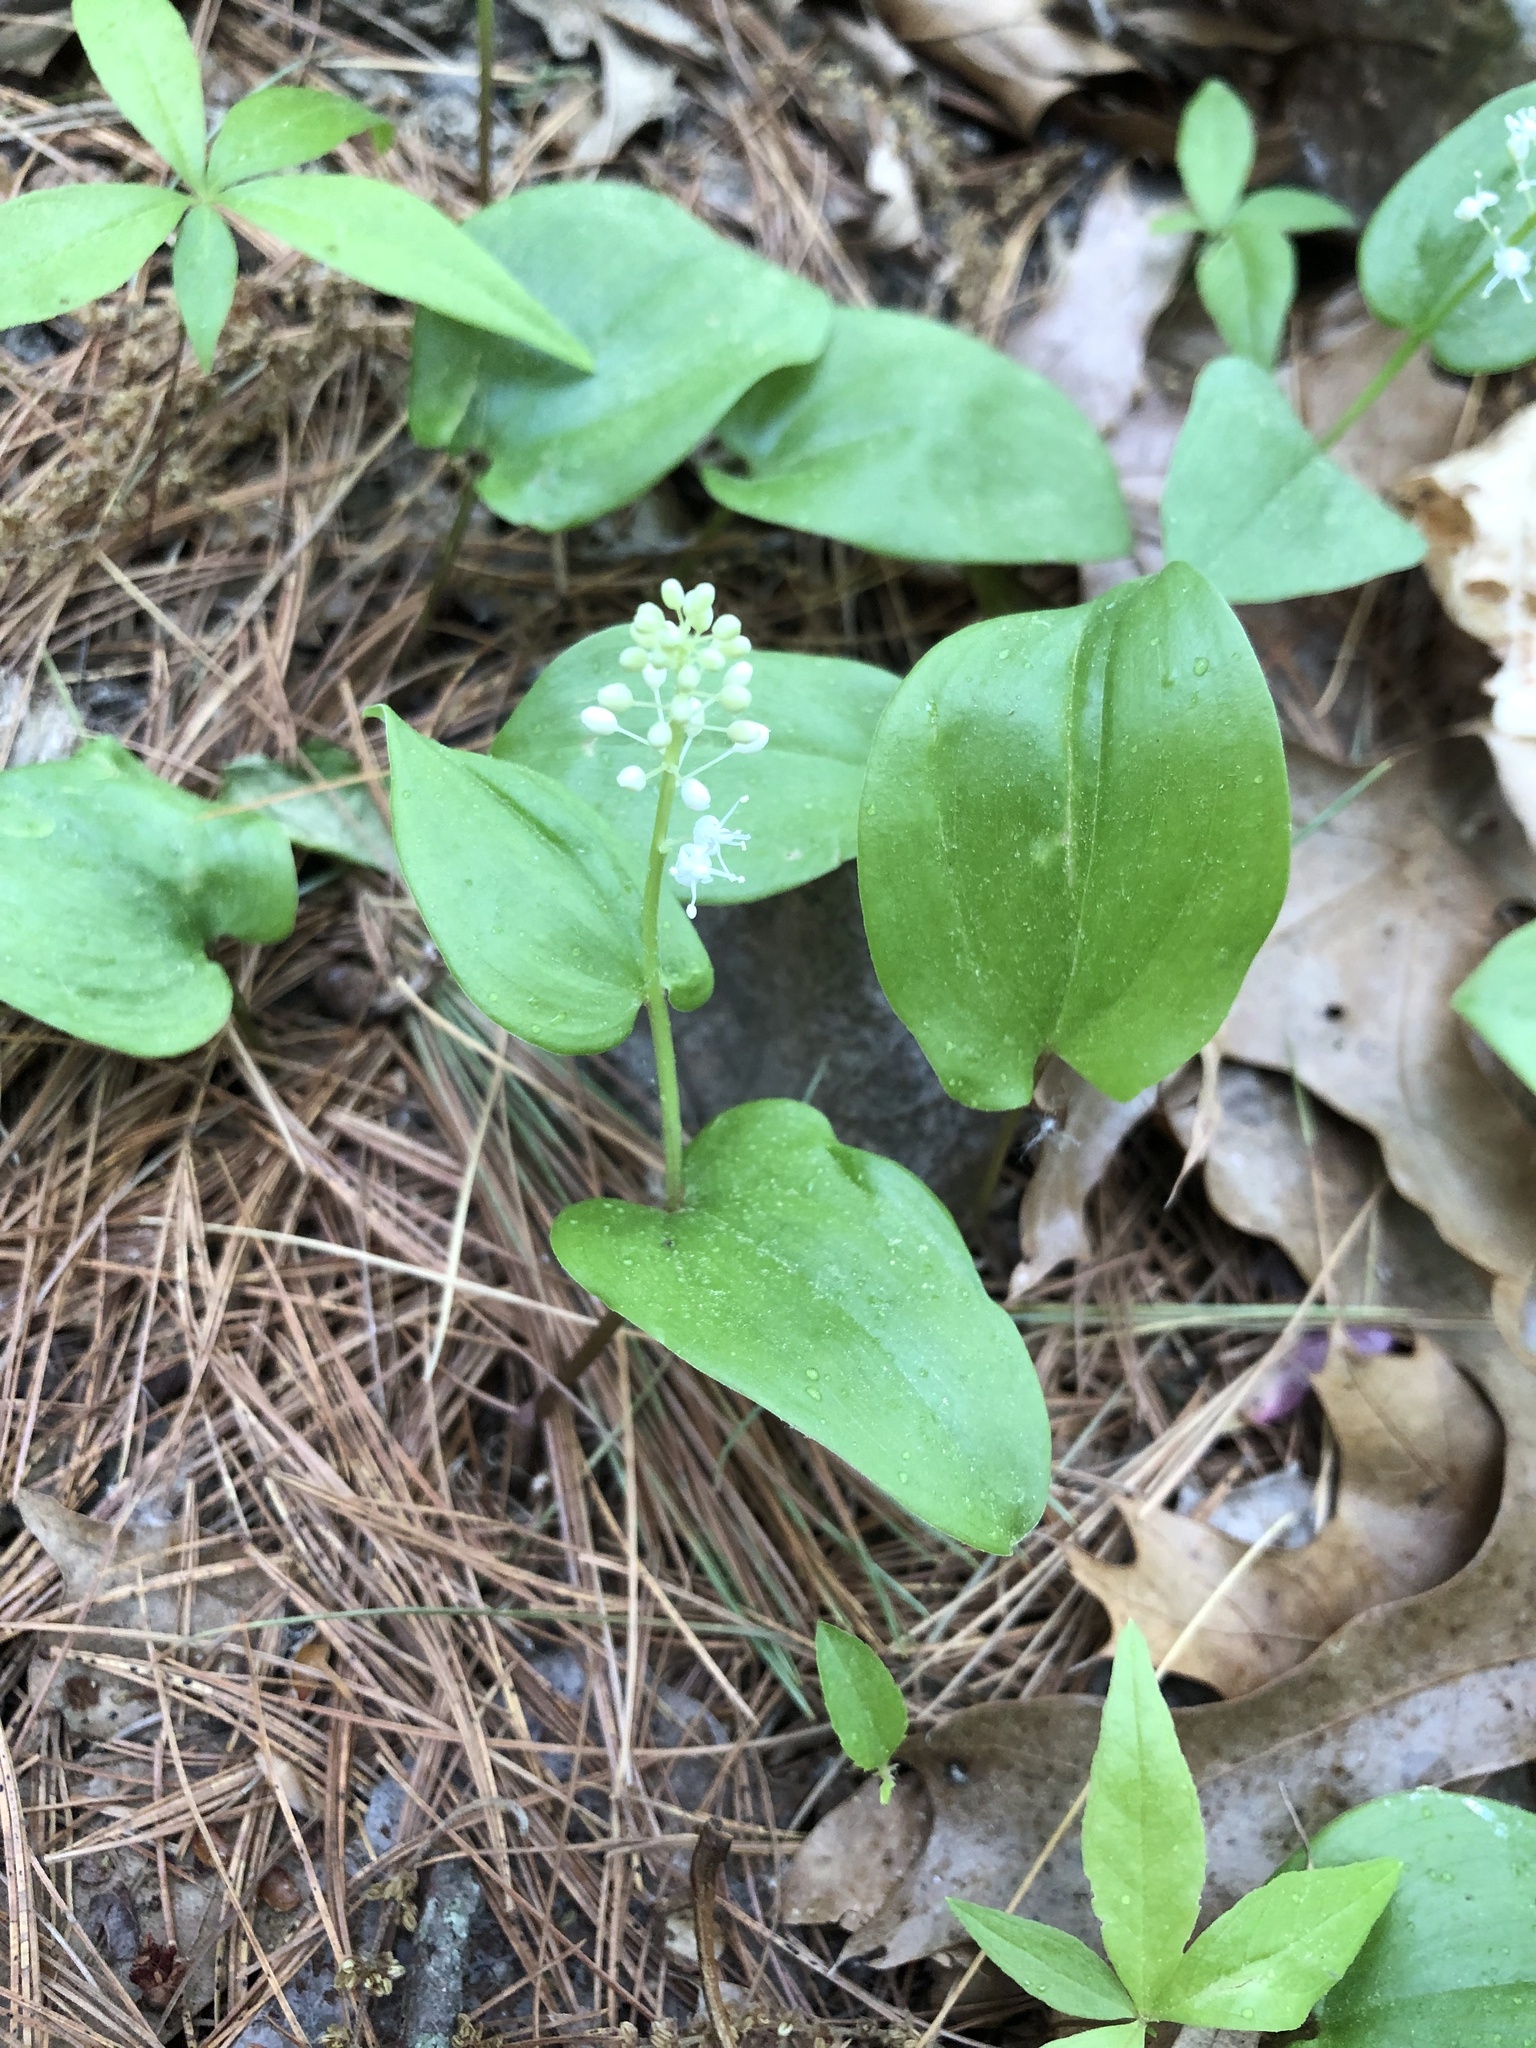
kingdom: Plantae
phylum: Tracheophyta
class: Liliopsida
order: Asparagales
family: Asparagaceae
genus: Maianthemum
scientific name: Maianthemum canadense
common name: False lily-of-the-valley
